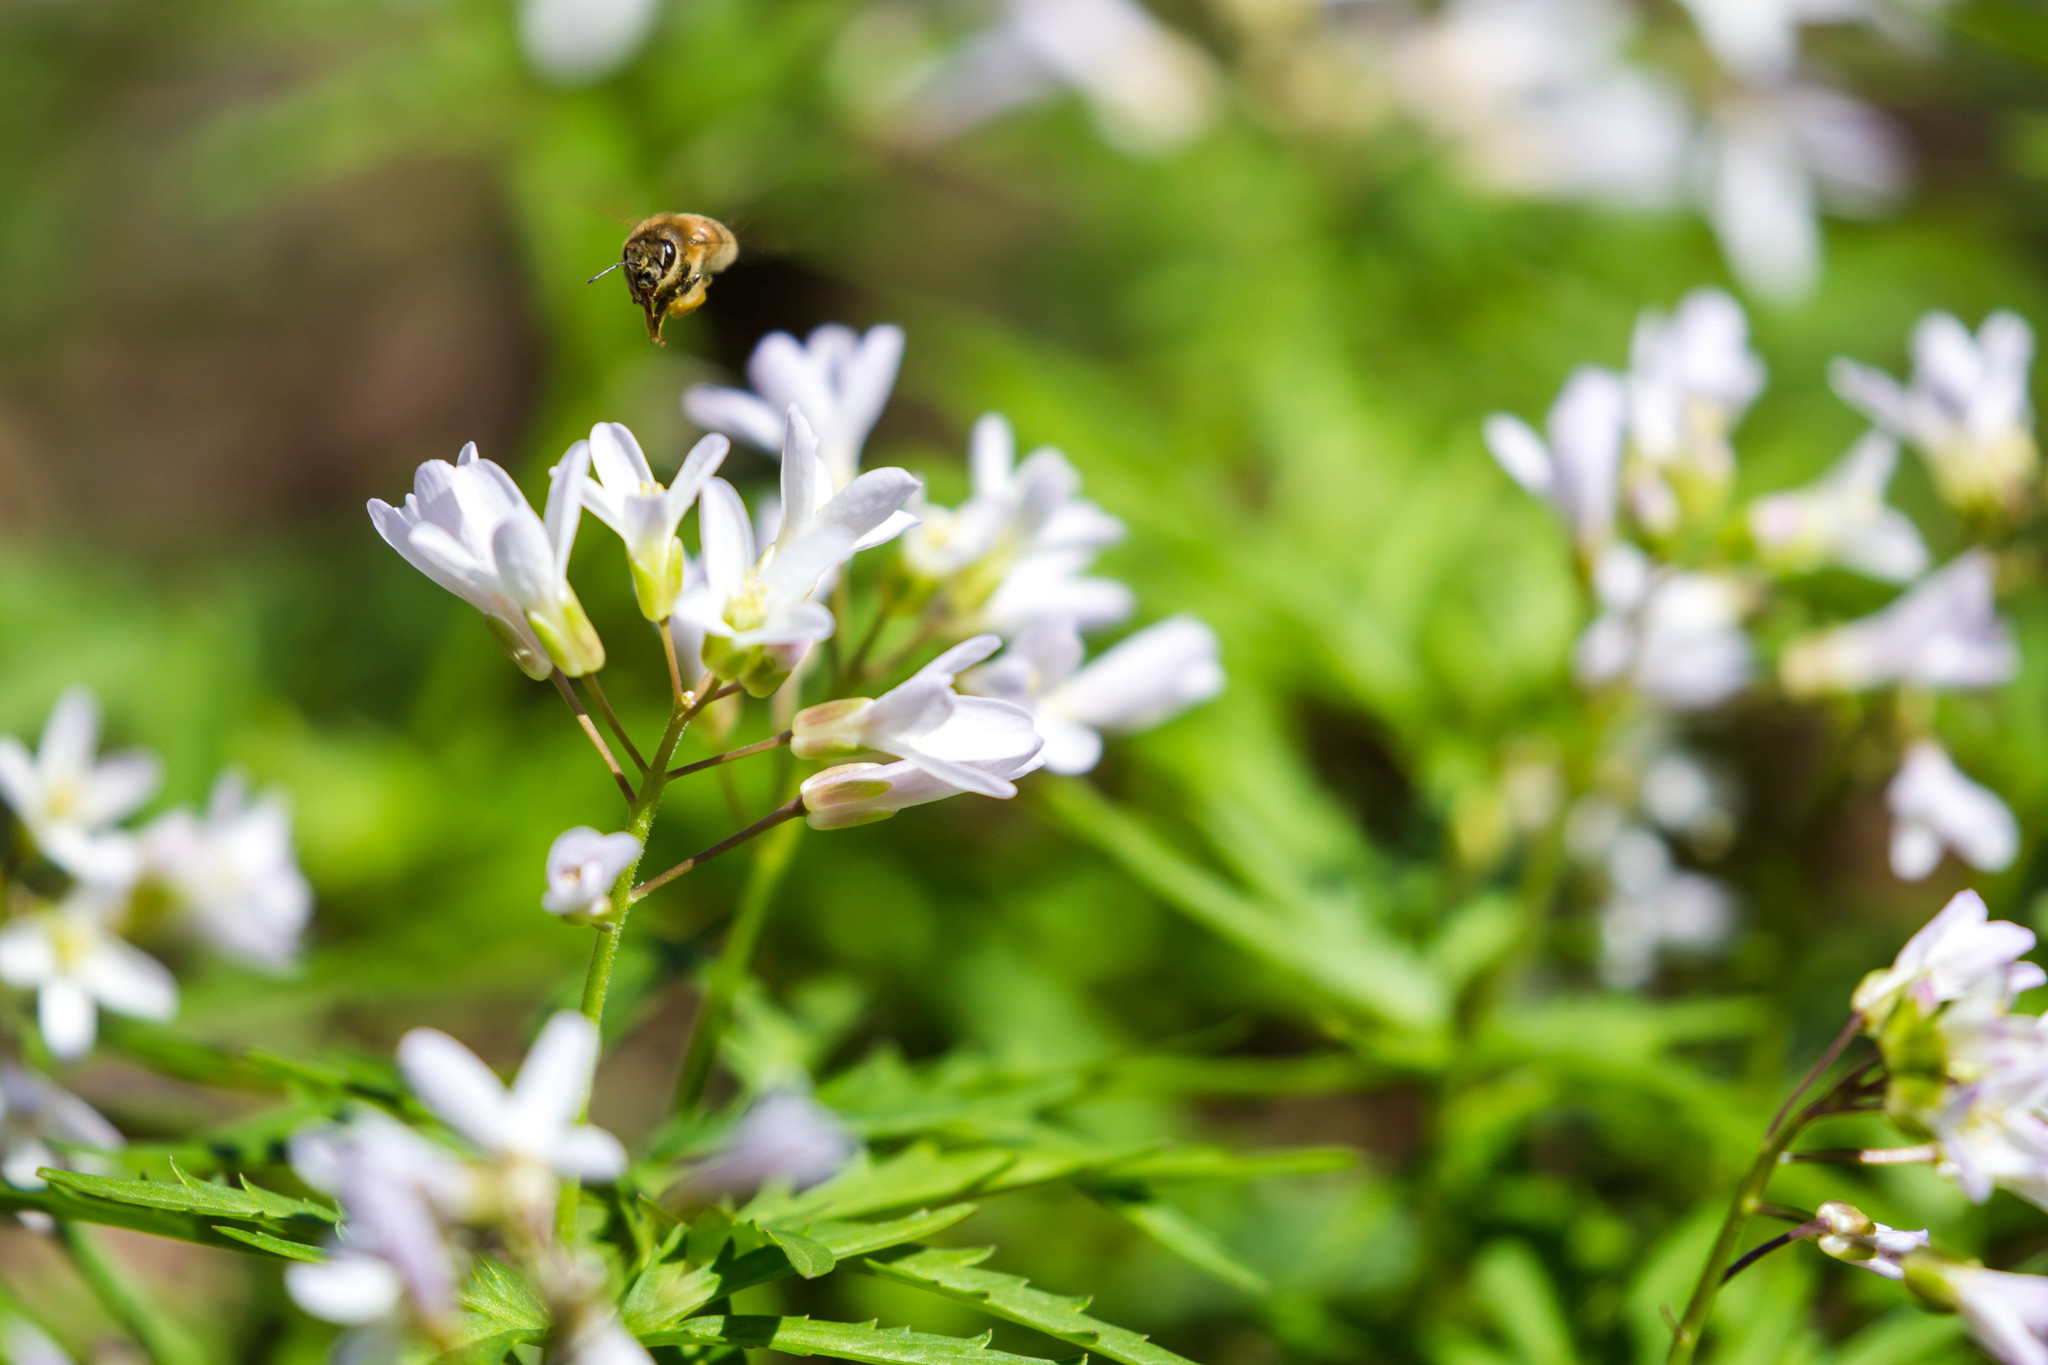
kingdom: Animalia
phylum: Arthropoda
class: Insecta
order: Hymenoptera
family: Apidae
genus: Apis
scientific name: Apis mellifera
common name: Honey bee
